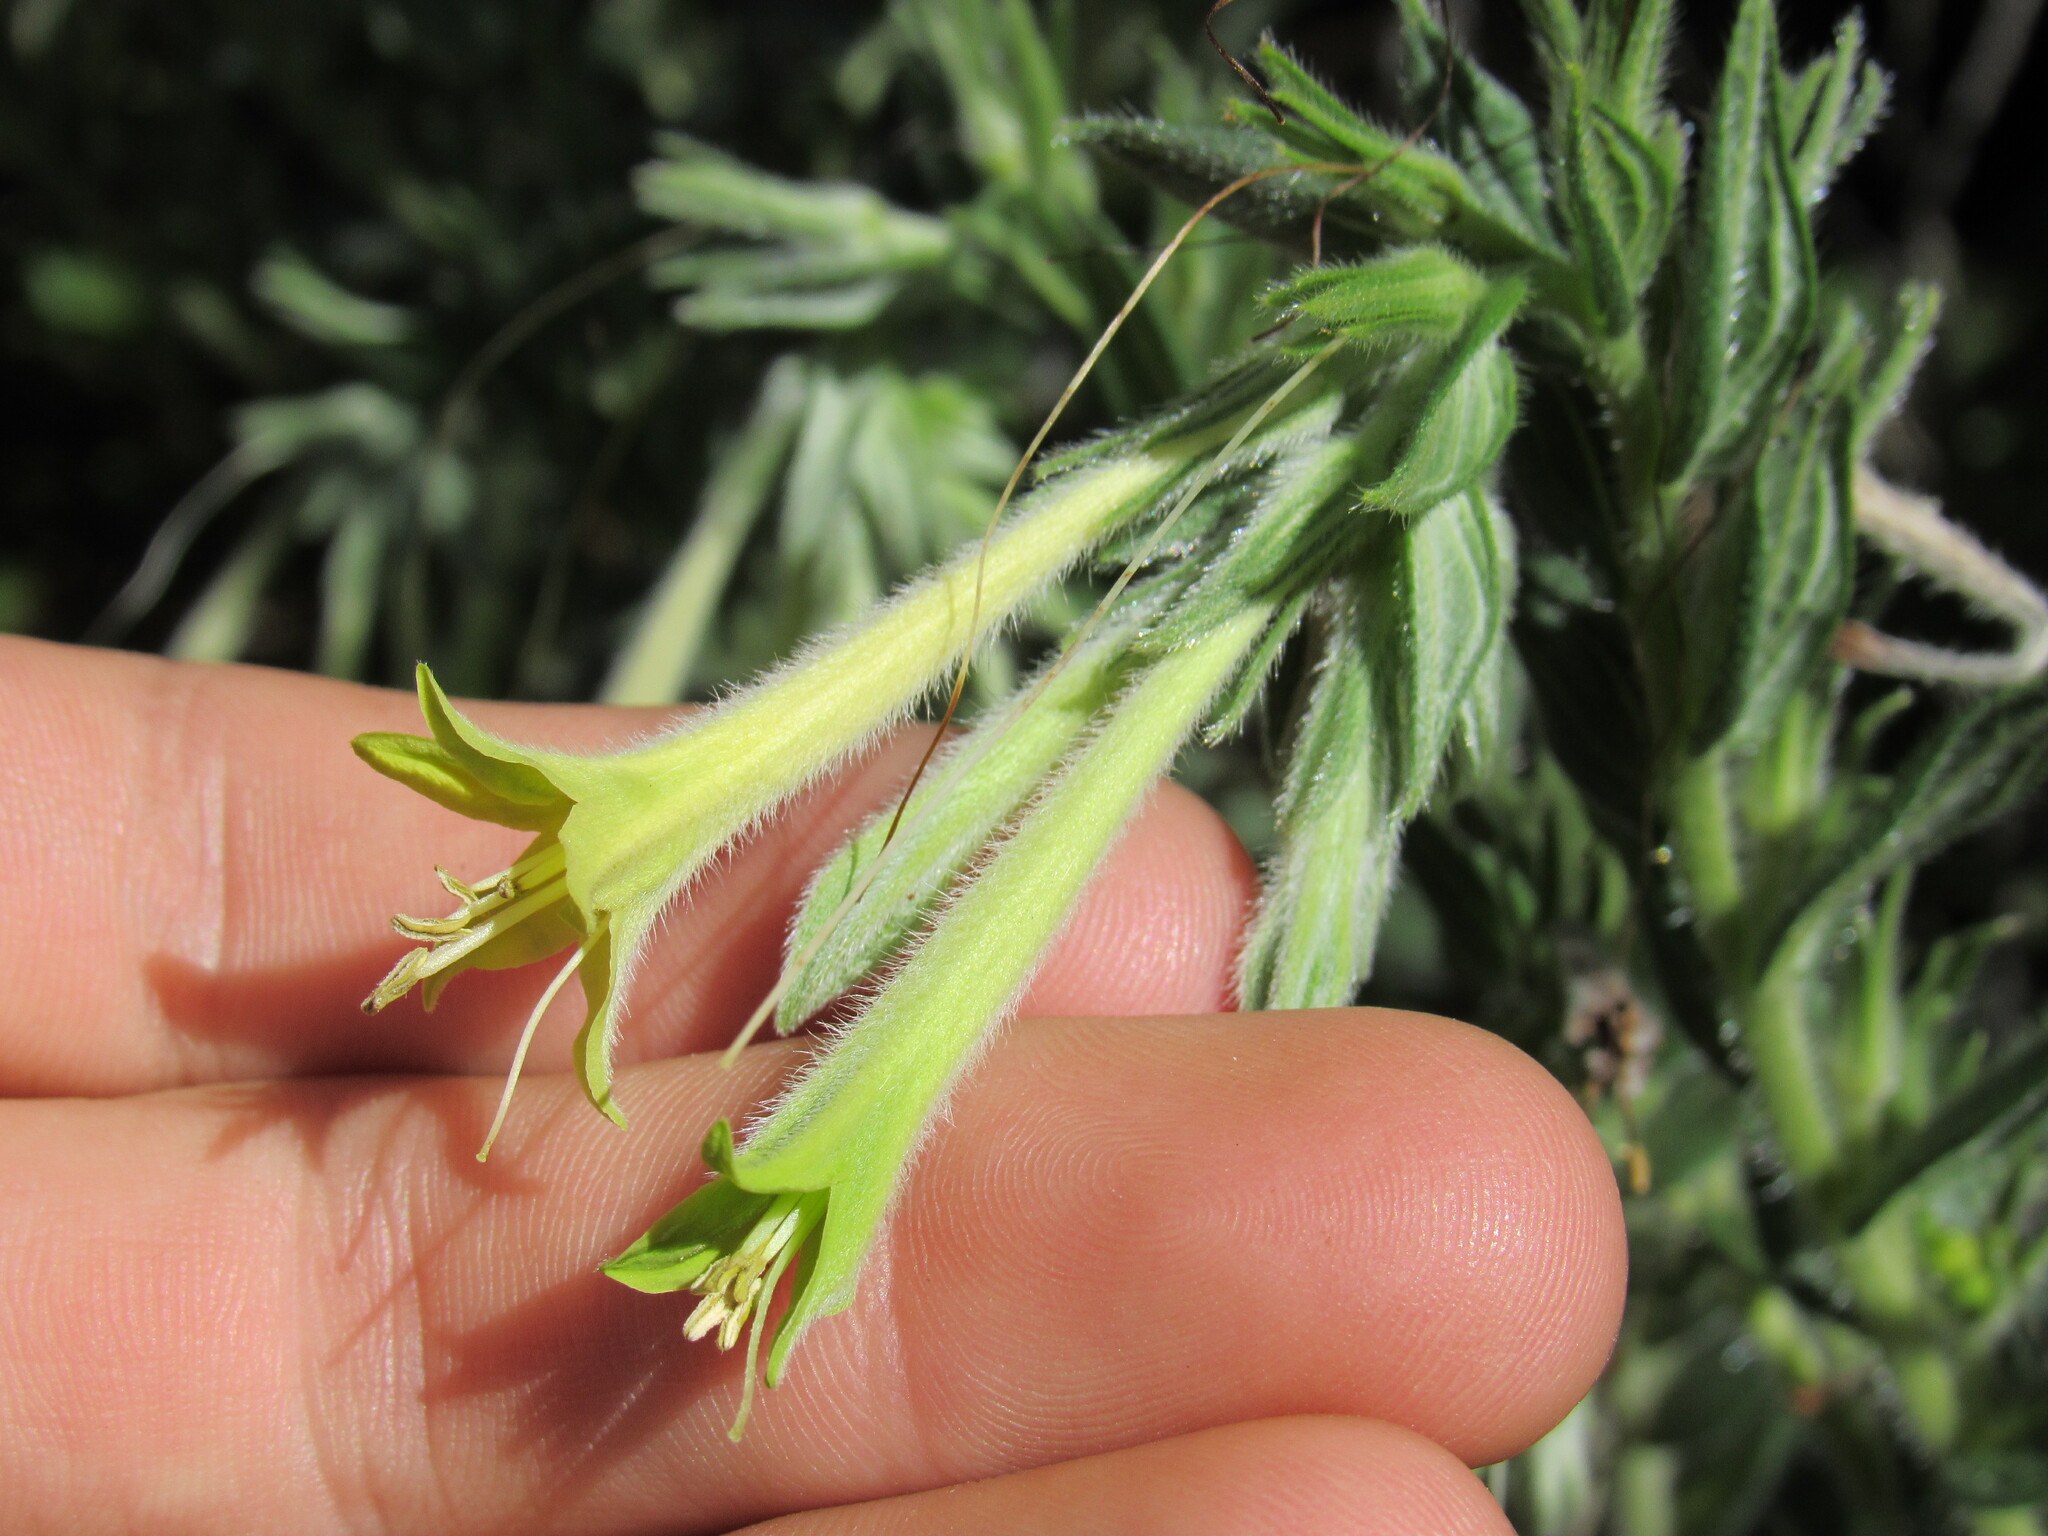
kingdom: Plantae
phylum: Tracheophyta
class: Magnoliopsida
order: Boraginales
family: Boraginaceae
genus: Lithospermum
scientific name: Lithospermum thurberi
